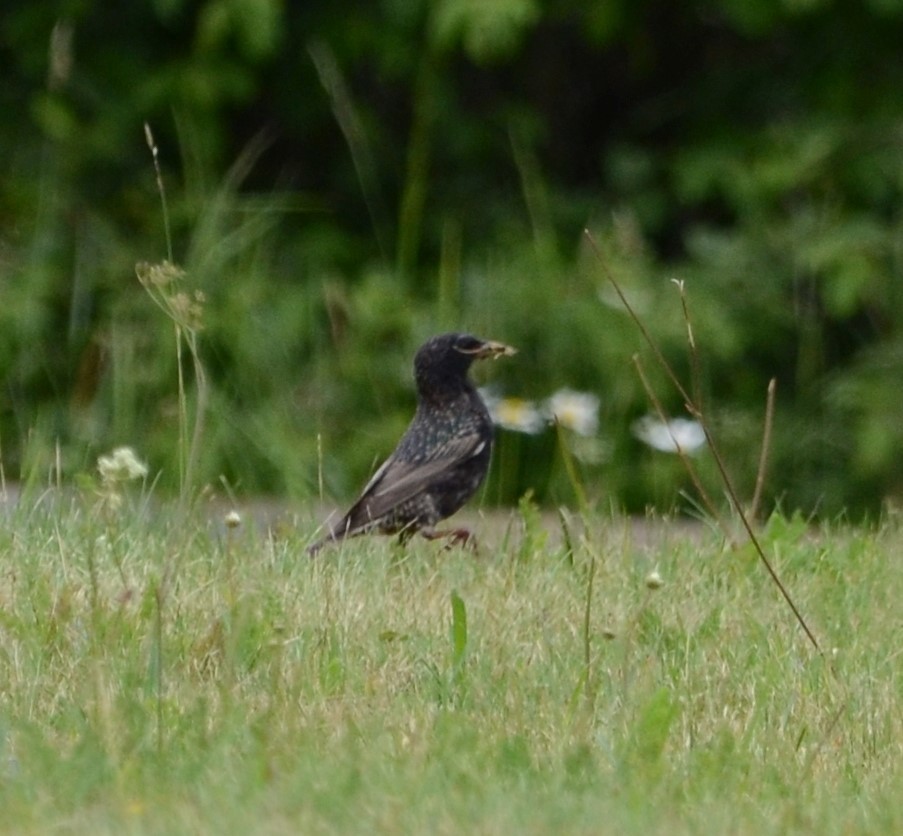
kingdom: Animalia
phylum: Chordata
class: Aves
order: Passeriformes
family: Sturnidae
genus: Sturnus
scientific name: Sturnus vulgaris
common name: Common starling
